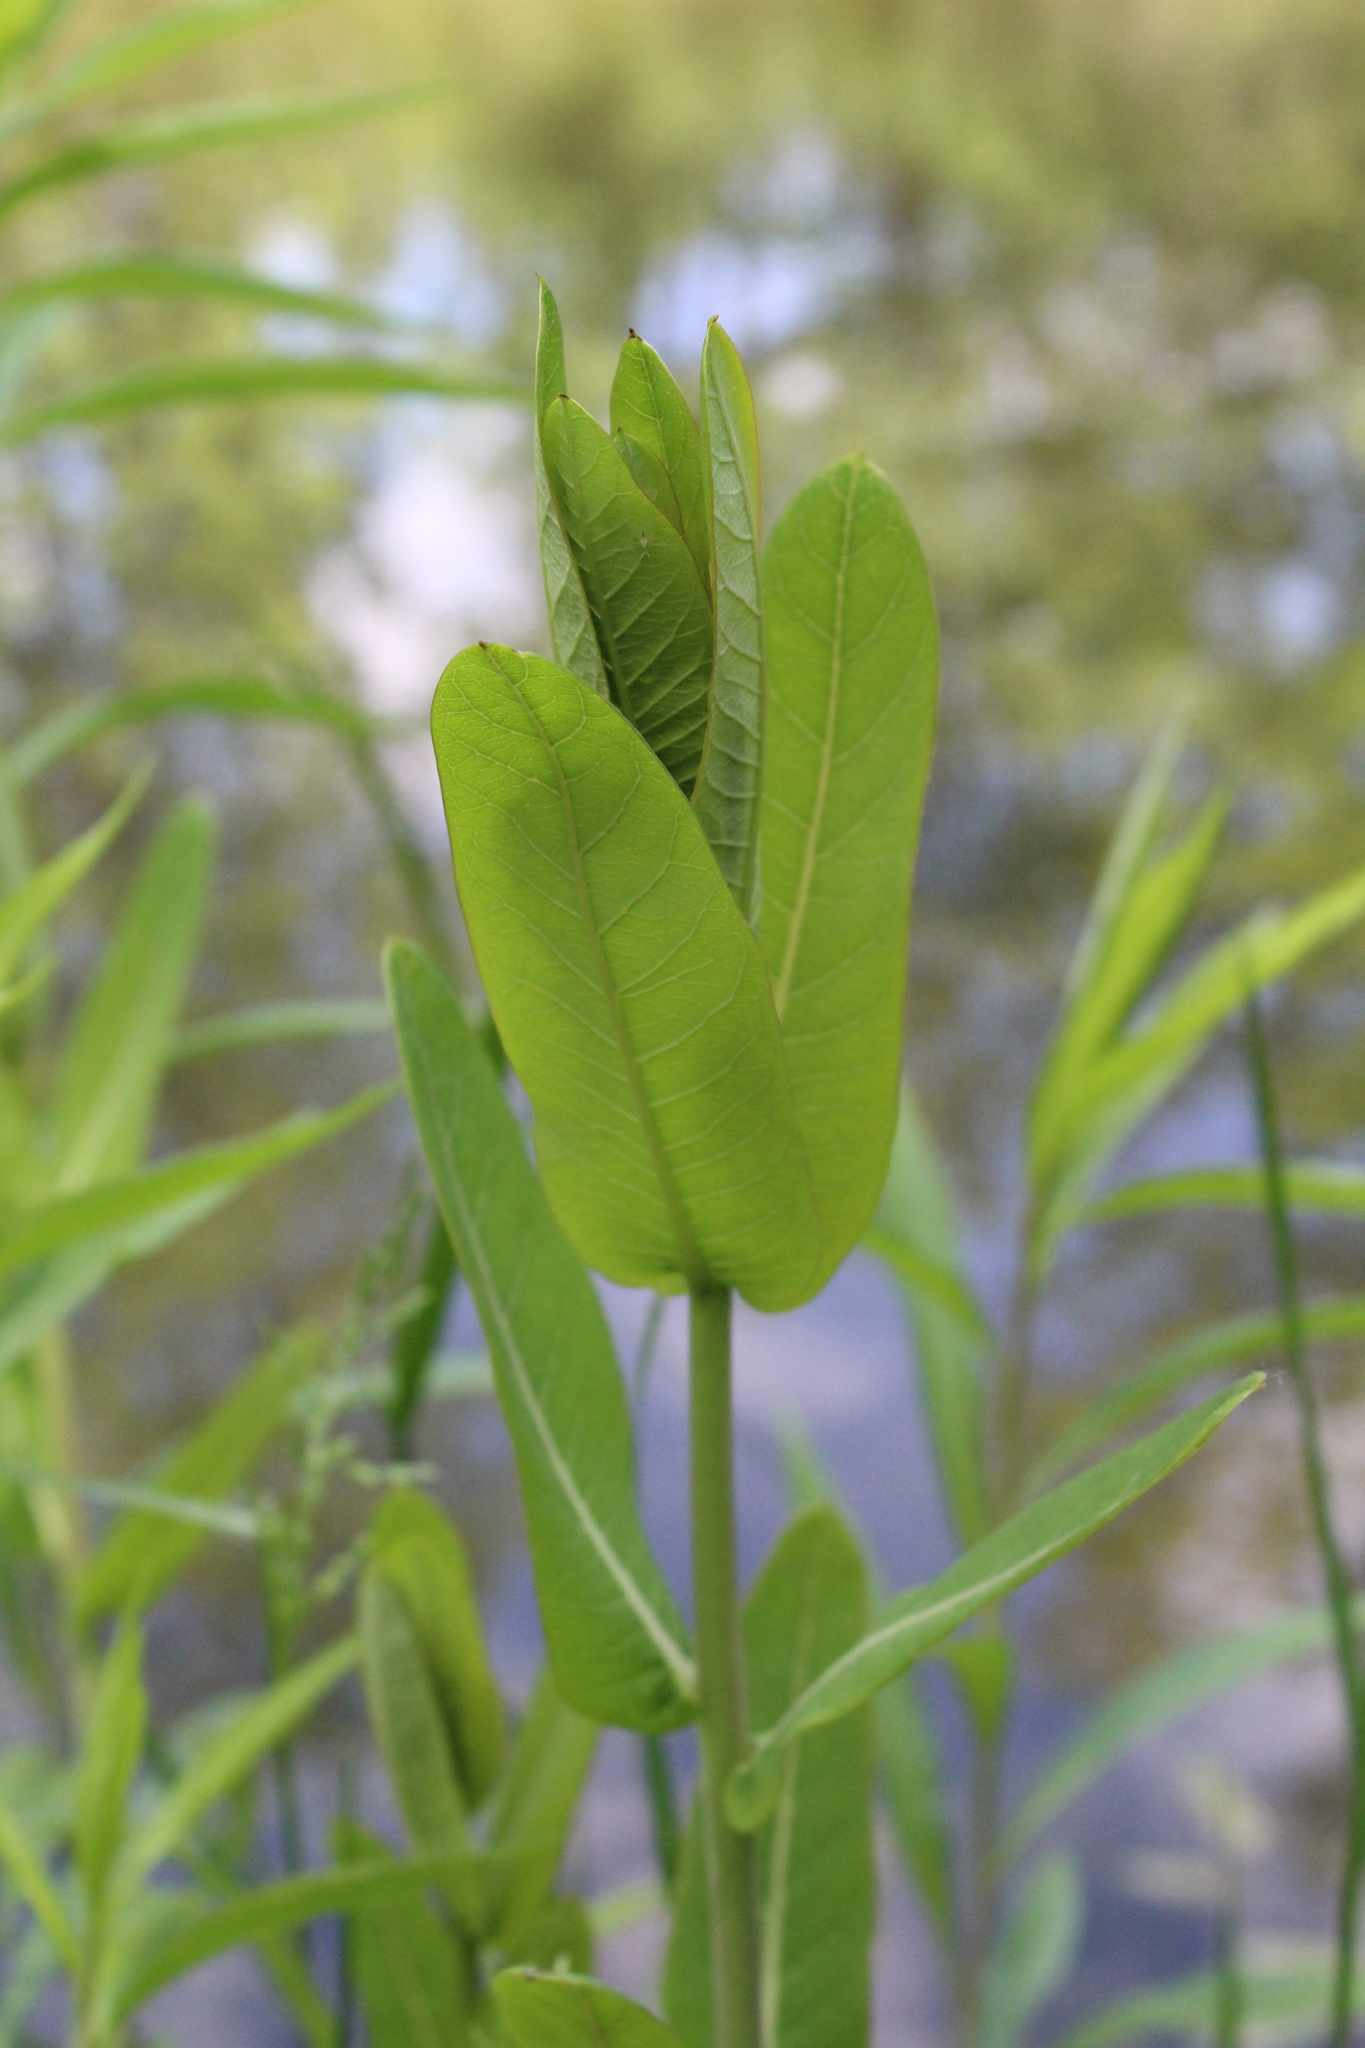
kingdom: Plantae
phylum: Tracheophyta
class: Magnoliopsida
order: Gentianales
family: Apocynaceae
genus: Asclepias
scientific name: Asclepias syriaca
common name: Common milkweed
